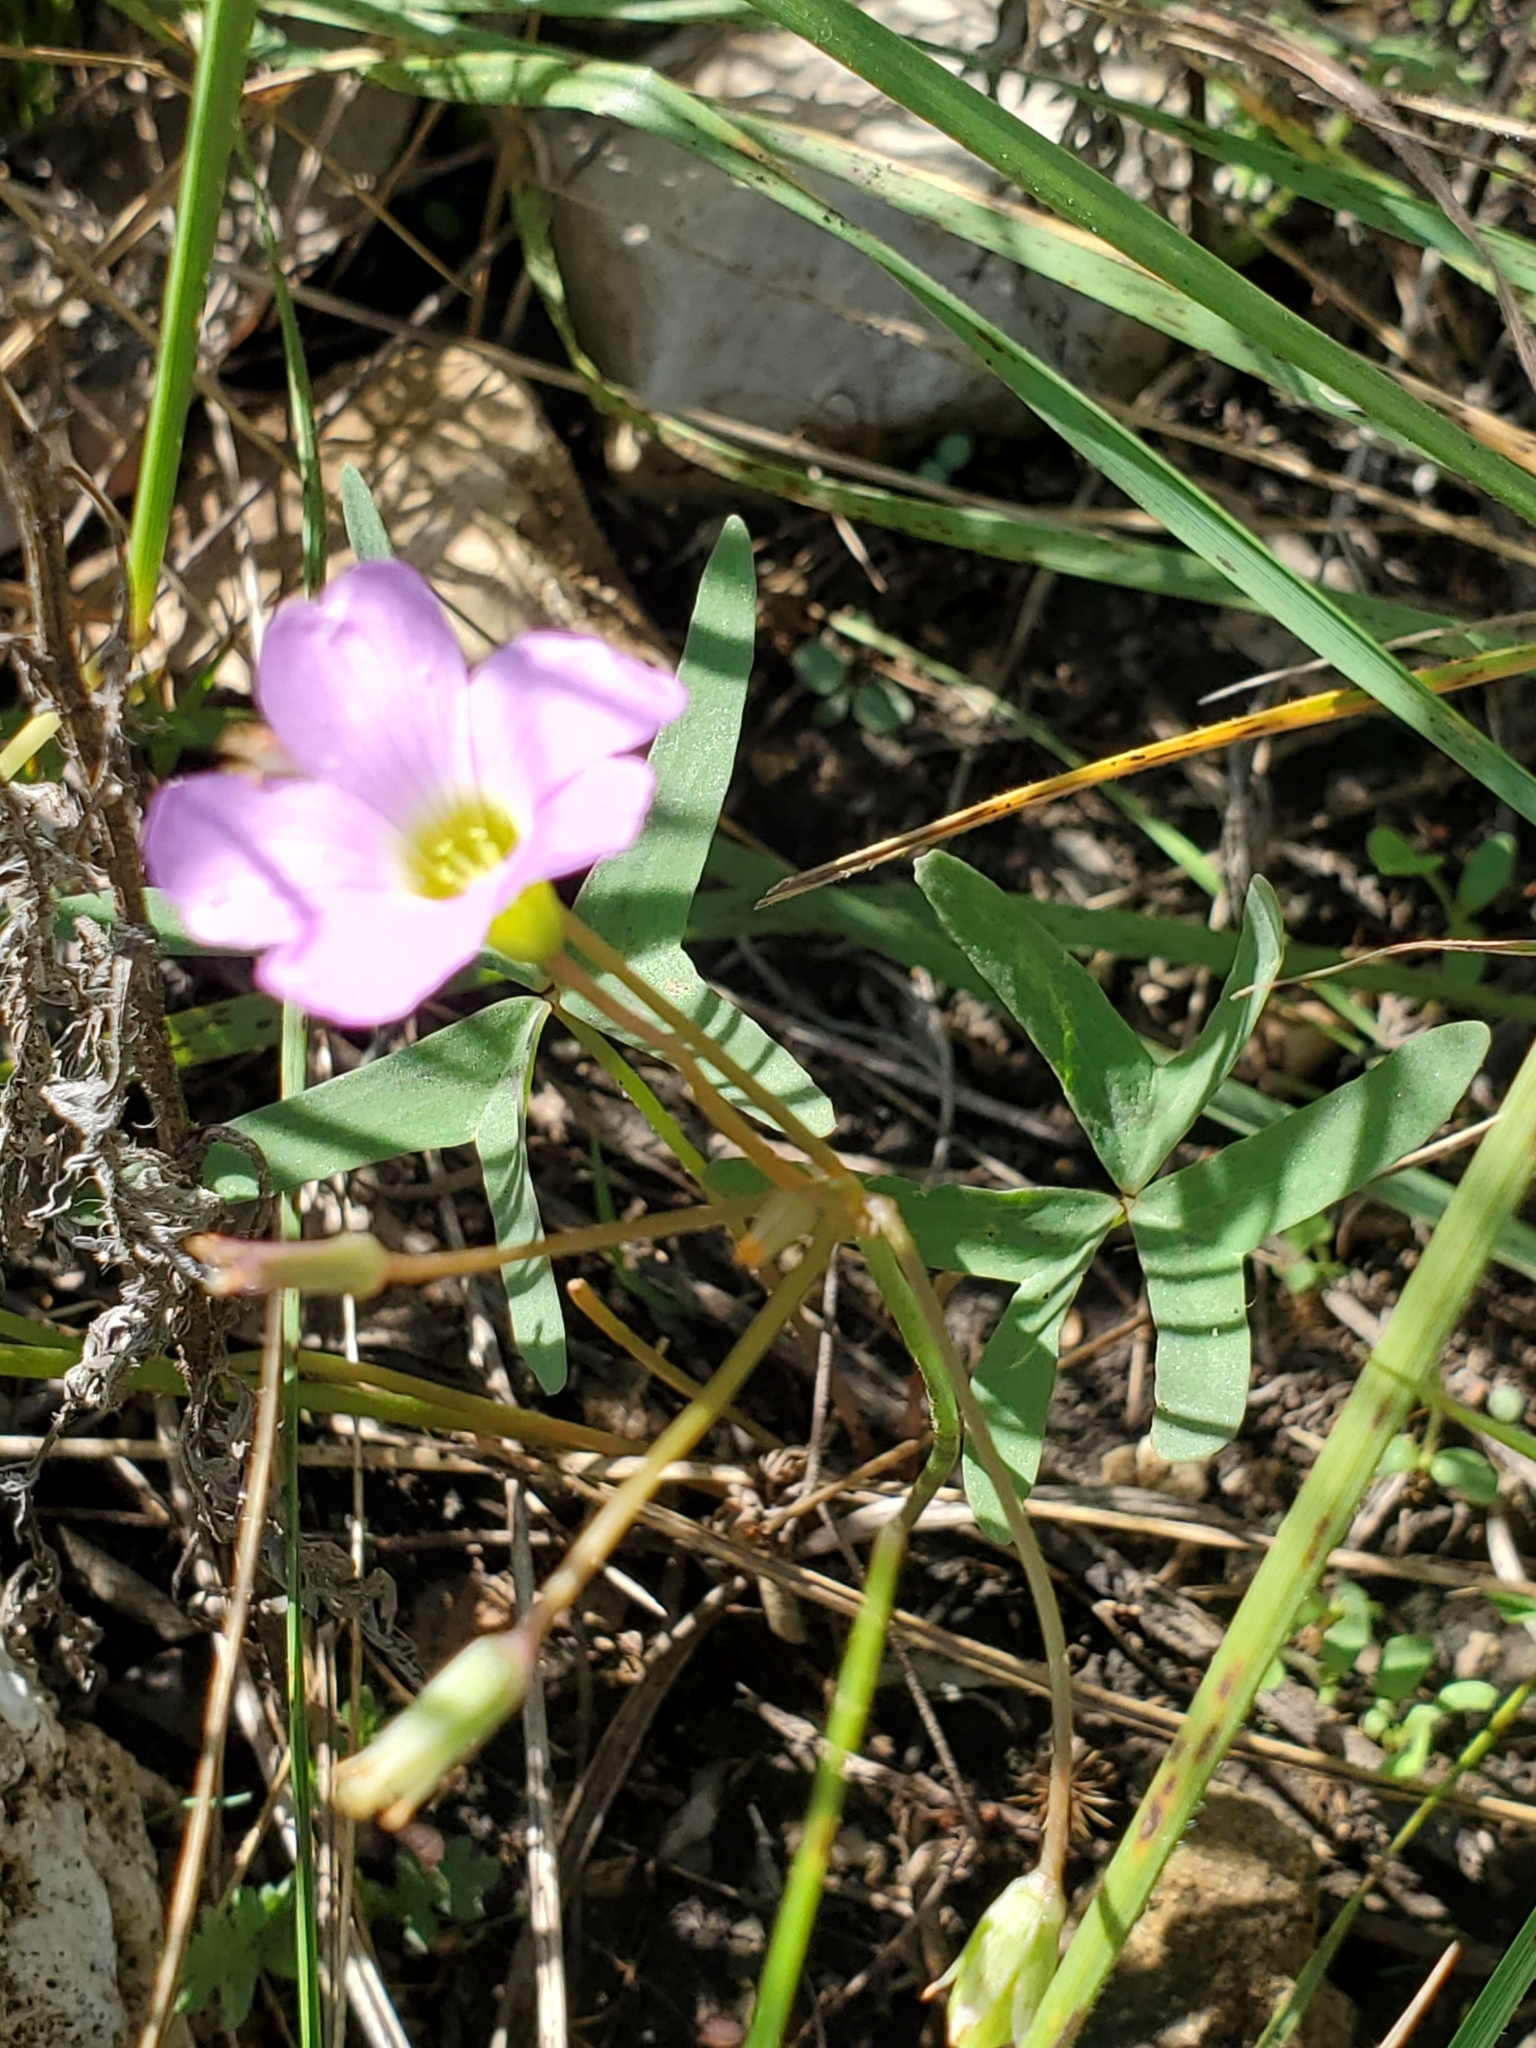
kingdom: Plantae
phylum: Tracheophyta
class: Magnoliopsida
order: Oxalidales
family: Oxalidaceae
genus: Oxalis
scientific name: Oxalis drummondii
